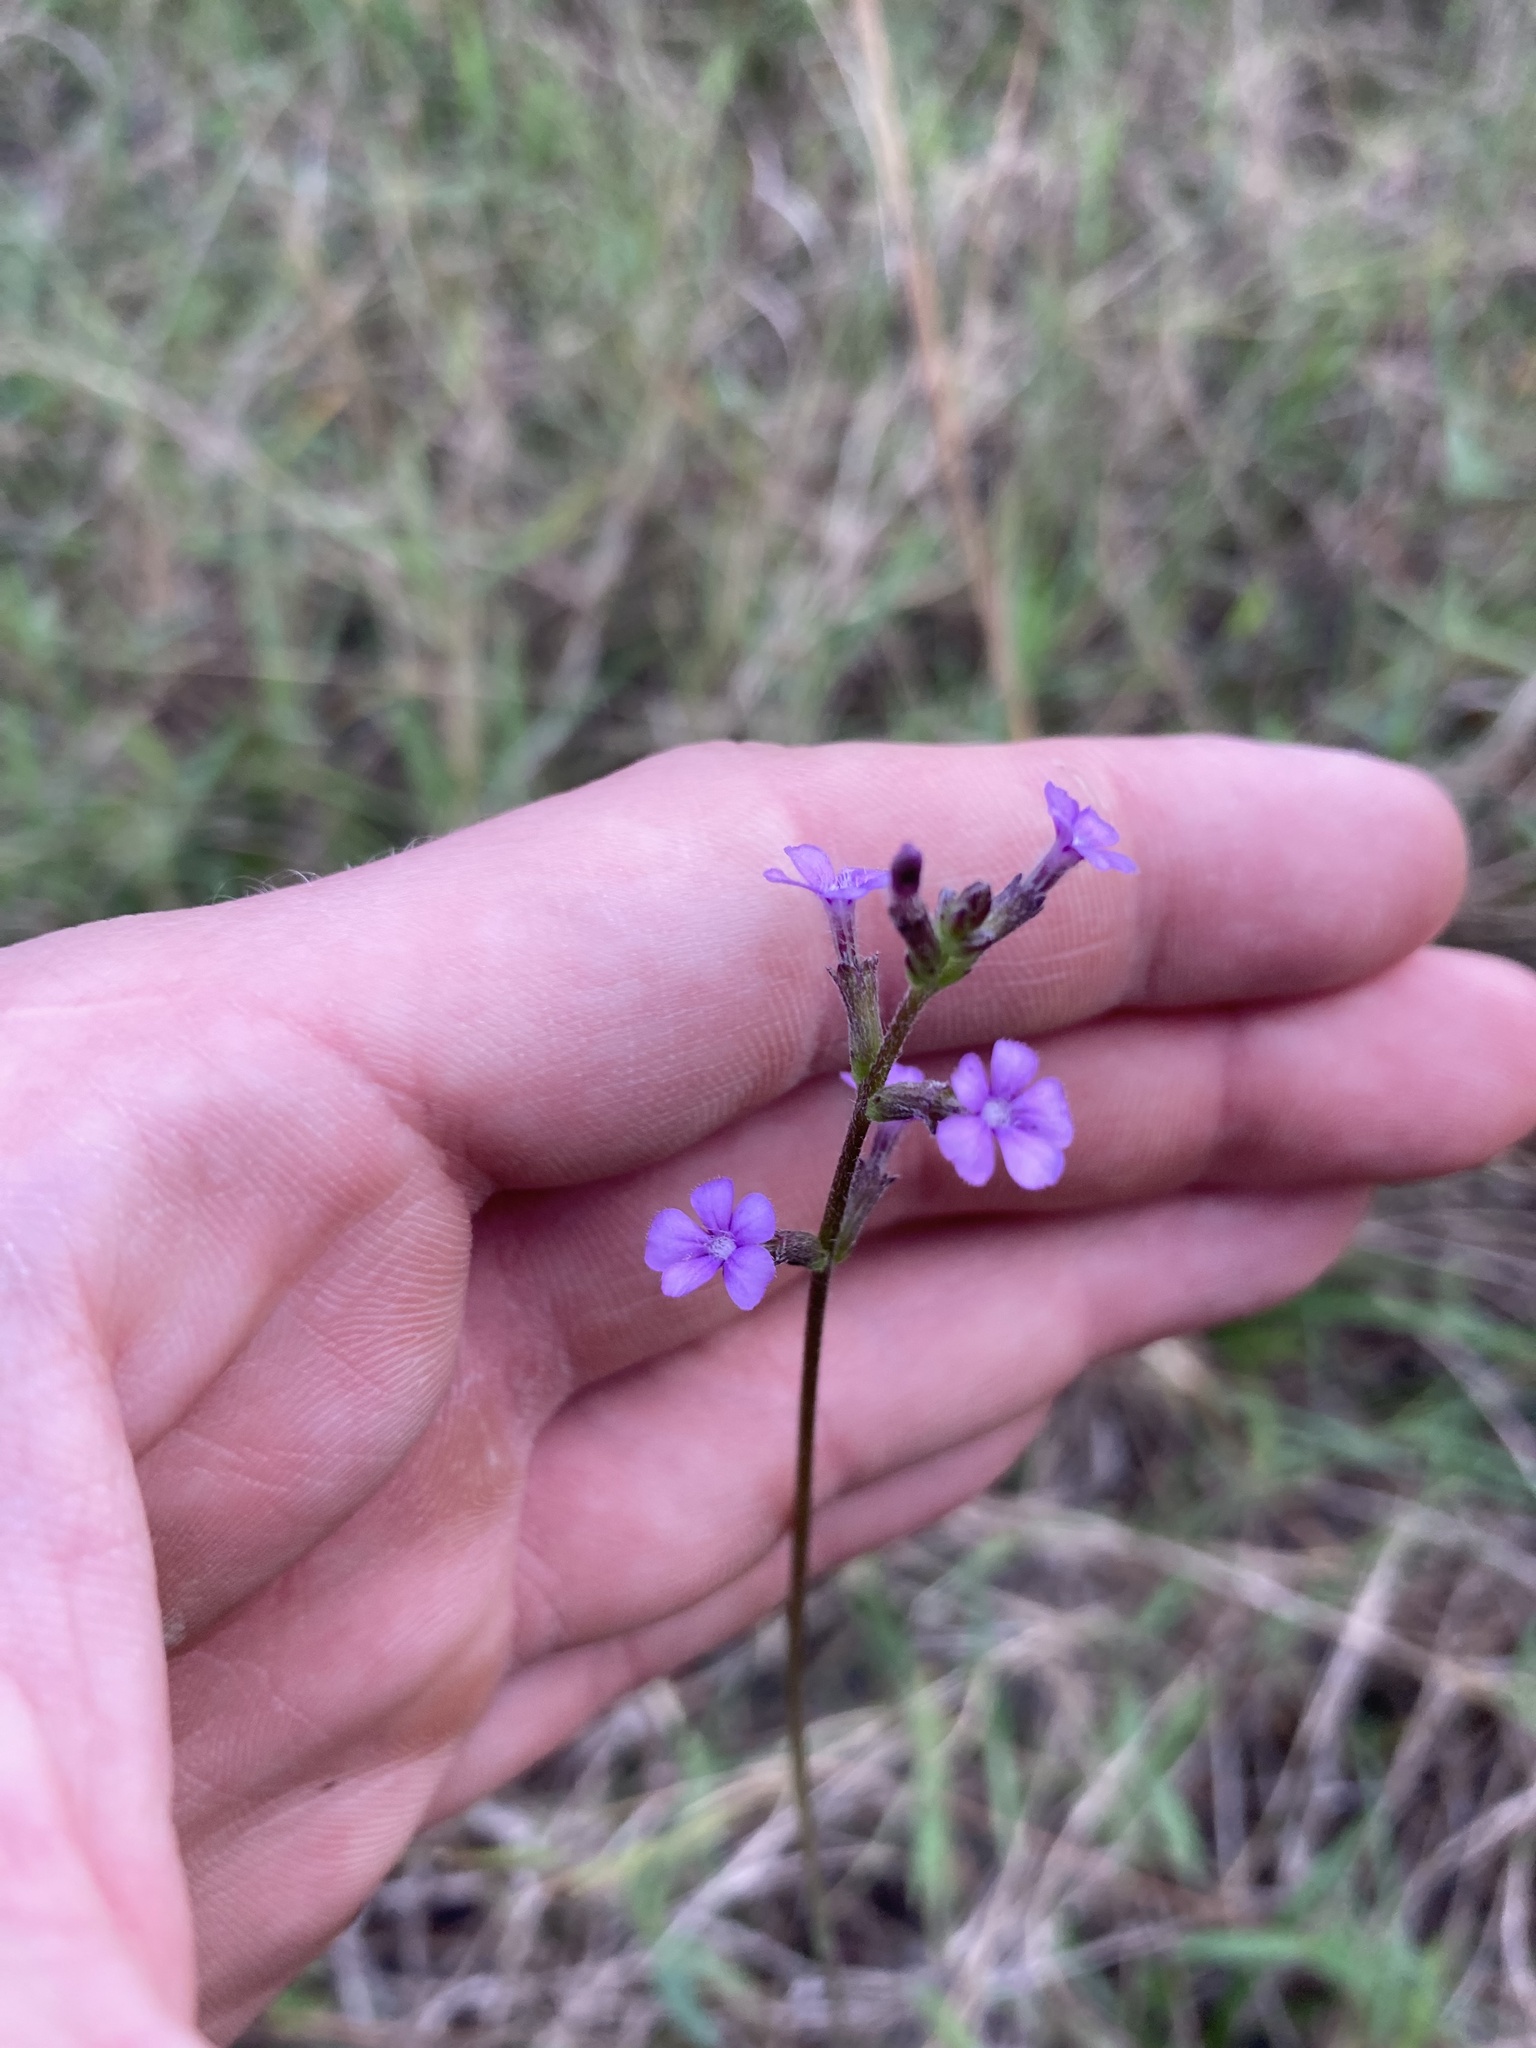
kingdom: Plantae
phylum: Tracheophyta
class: Magnoliopsida
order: Lamiales
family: Orobanchaceae
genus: Buchnera
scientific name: Buchnera floridana
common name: Florida bluehearts
